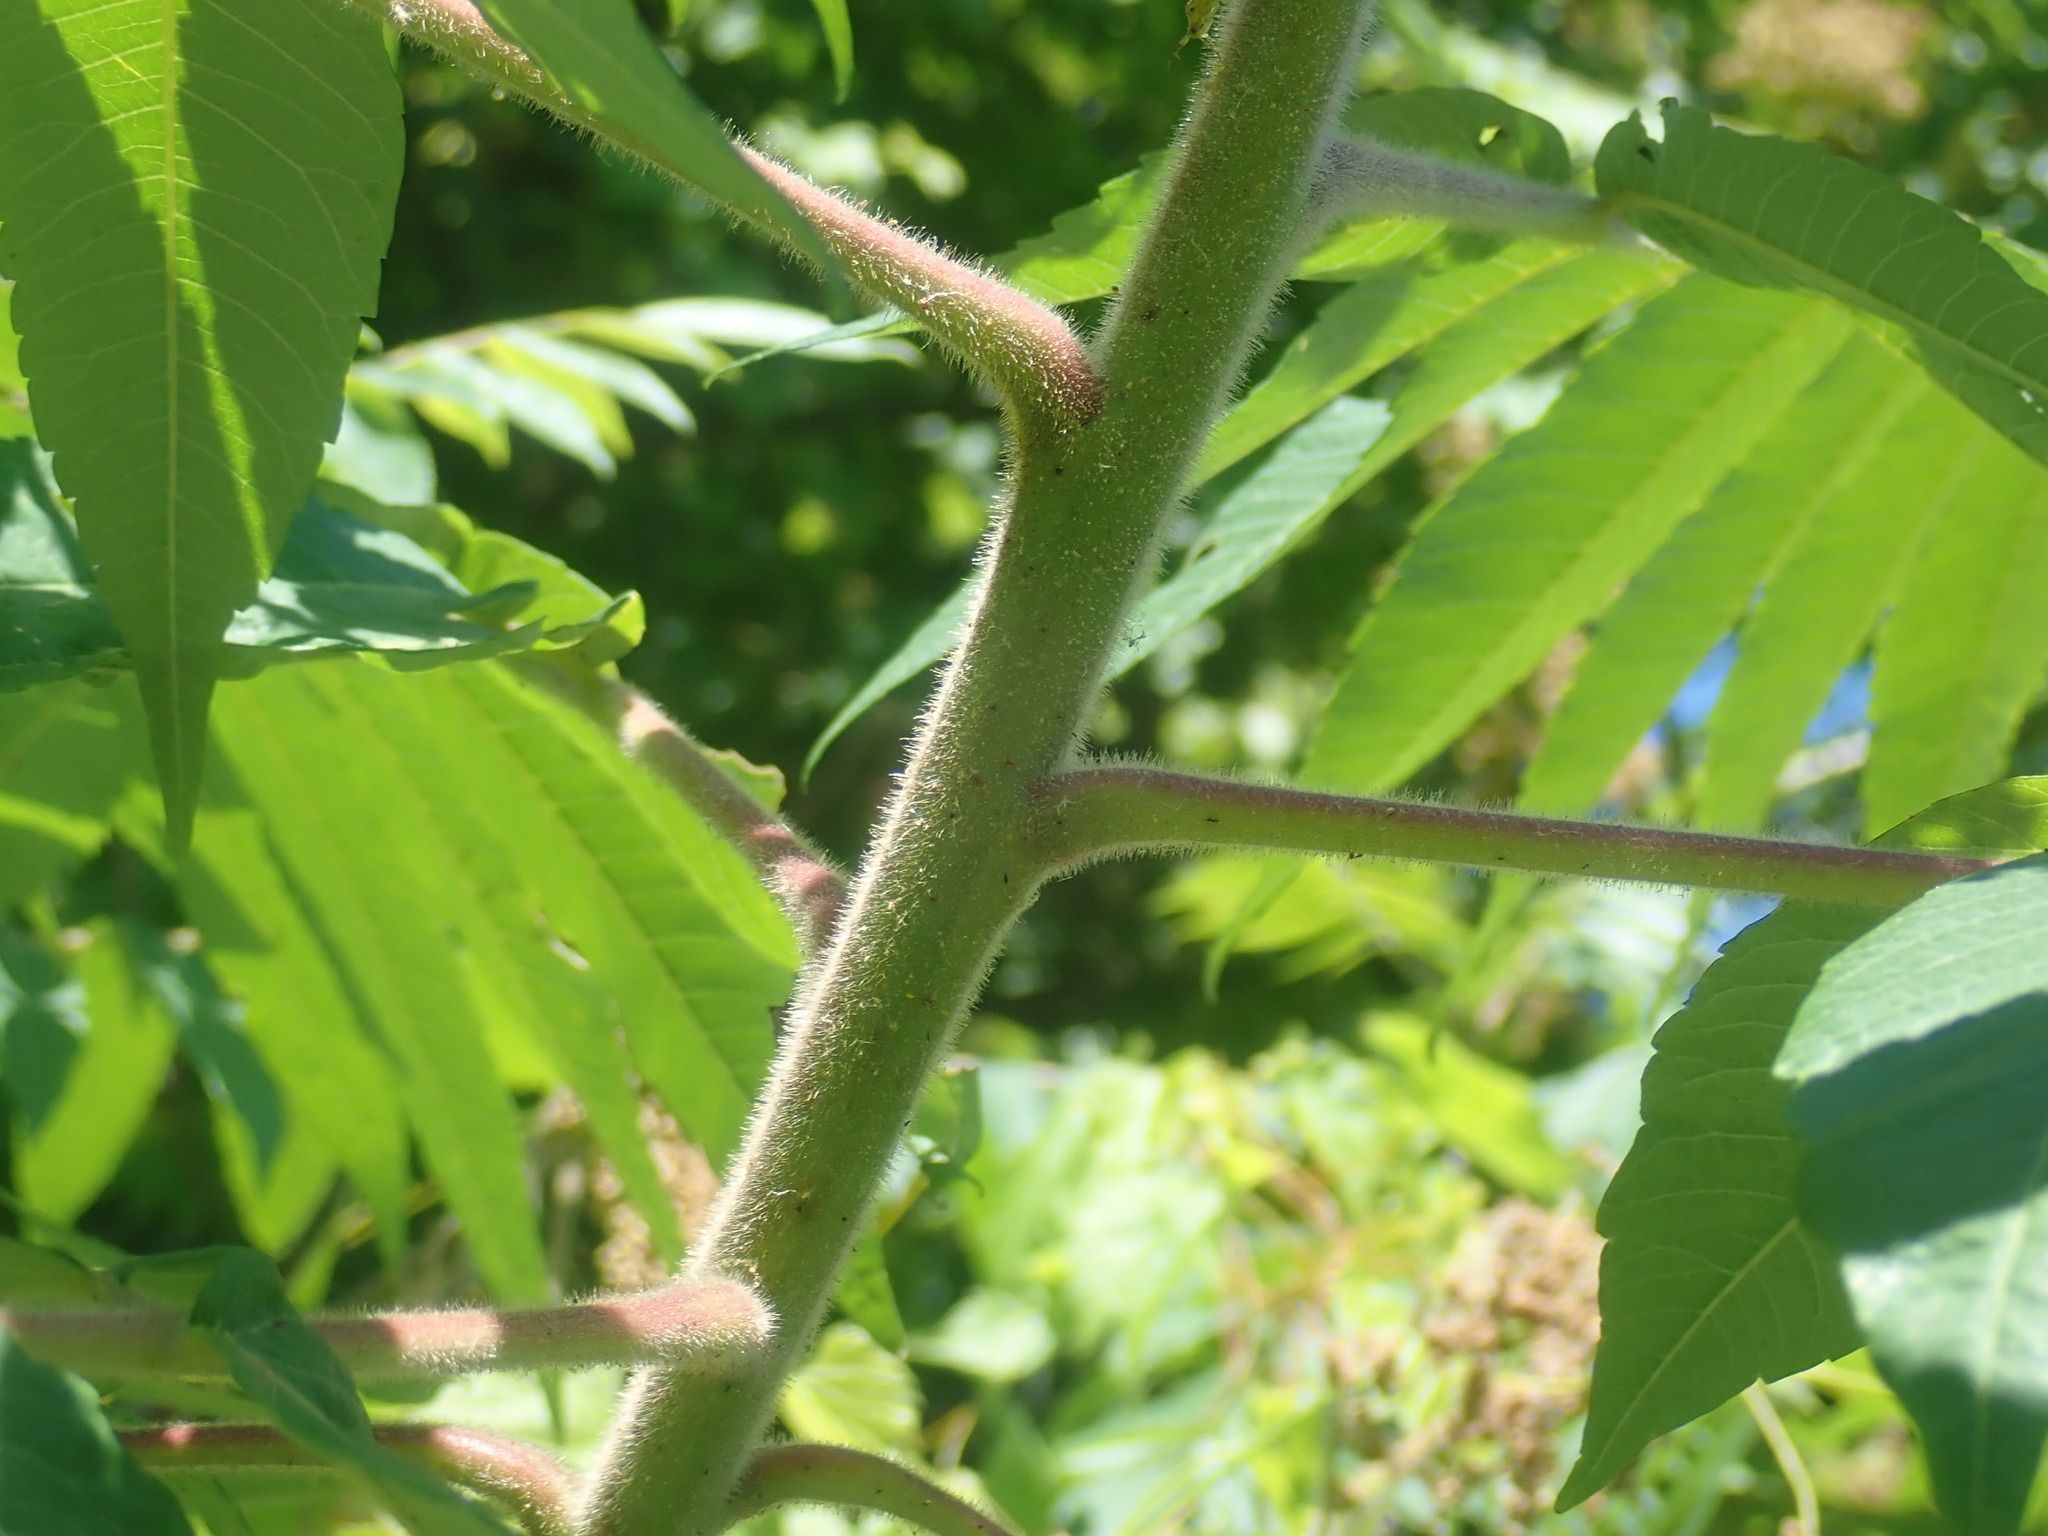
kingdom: Plantae
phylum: Tracheophyta
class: Magnoliopsida
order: Sapindales
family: Anacardiaceae
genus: Rhus
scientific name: Rhus typhina
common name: Staghorn sumac
